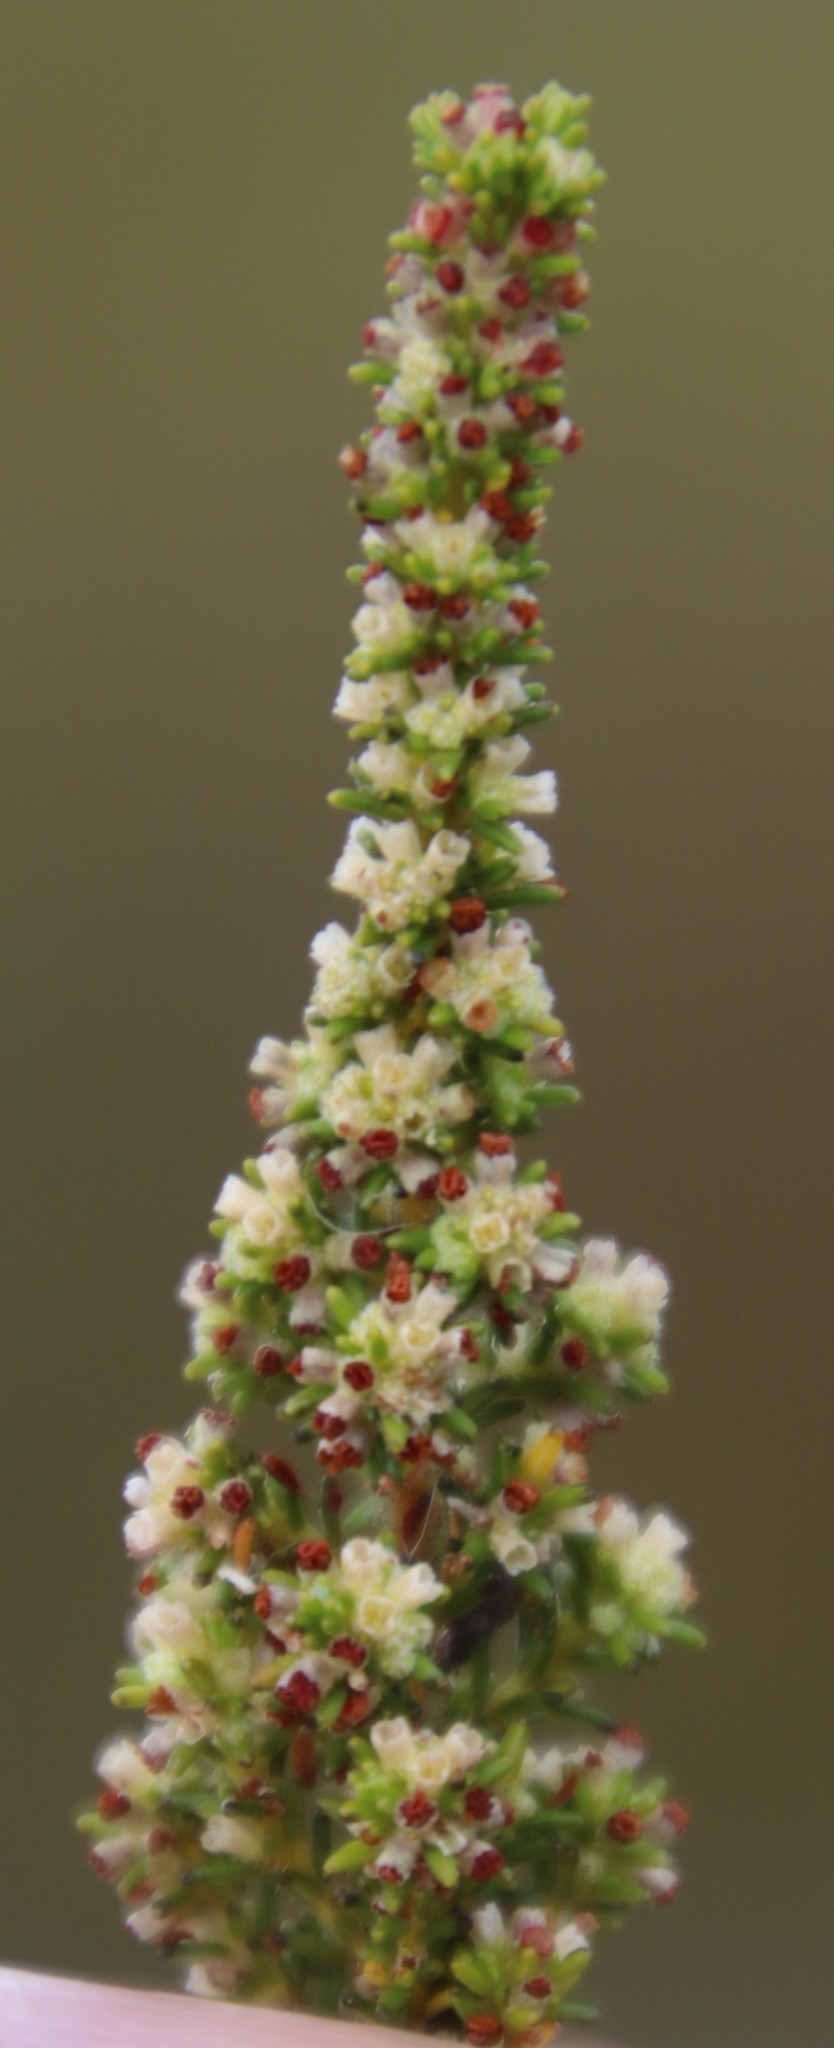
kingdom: Plantae
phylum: Tracheophyta
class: Magnoliopsida
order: Ericales
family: Ericaceae
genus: Erica
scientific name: Erica muscosa
